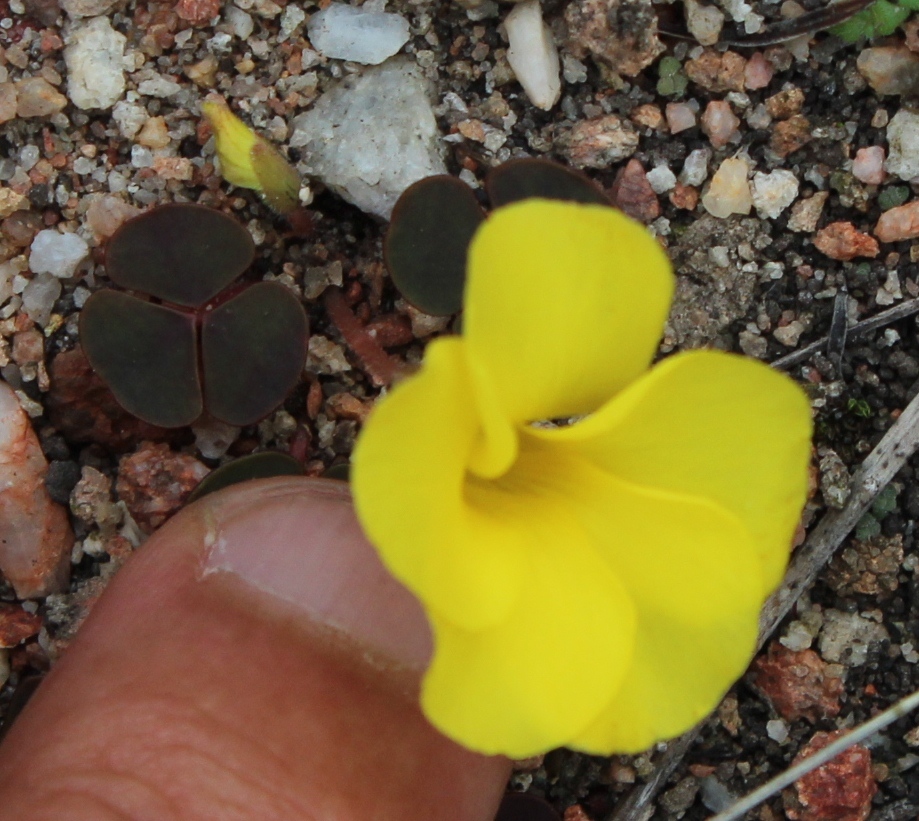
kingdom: Plantae
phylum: Tracheophyta
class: Magnoliopsida
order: Oxalidales
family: Oxalidaceae
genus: Oxalis
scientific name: Oxalis luteola
